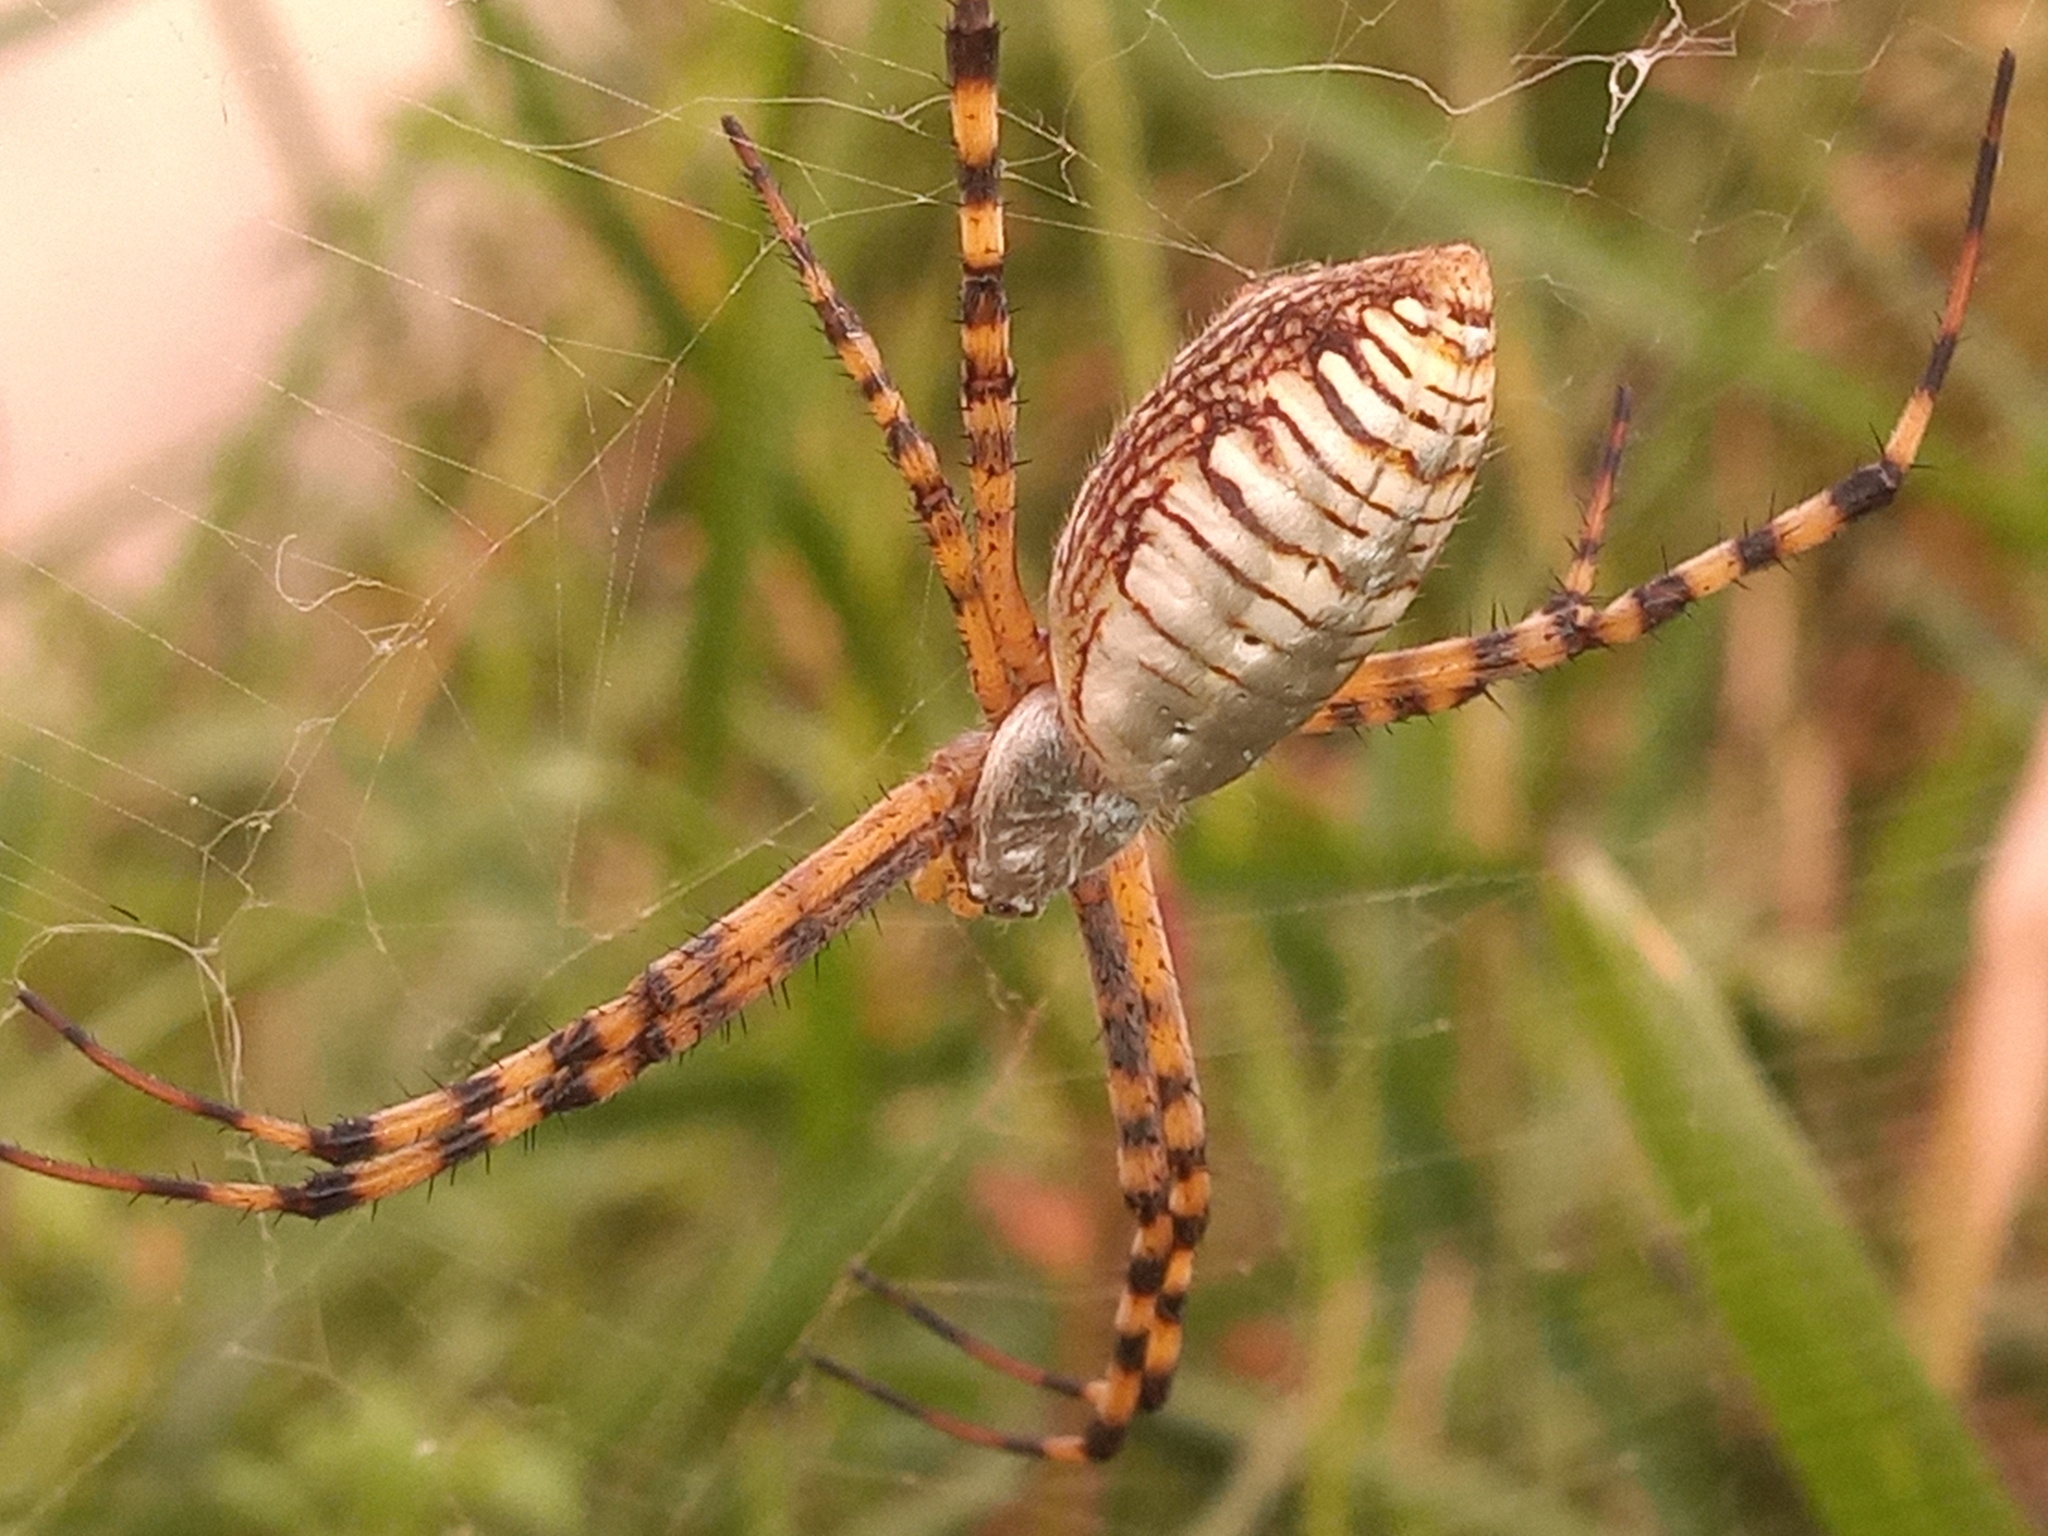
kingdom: Animalia
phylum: Arthropoda
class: Arachnida
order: Araneae
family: Araneidae
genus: Argiope
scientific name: Argiope trifasciata
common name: Banded garden spider
